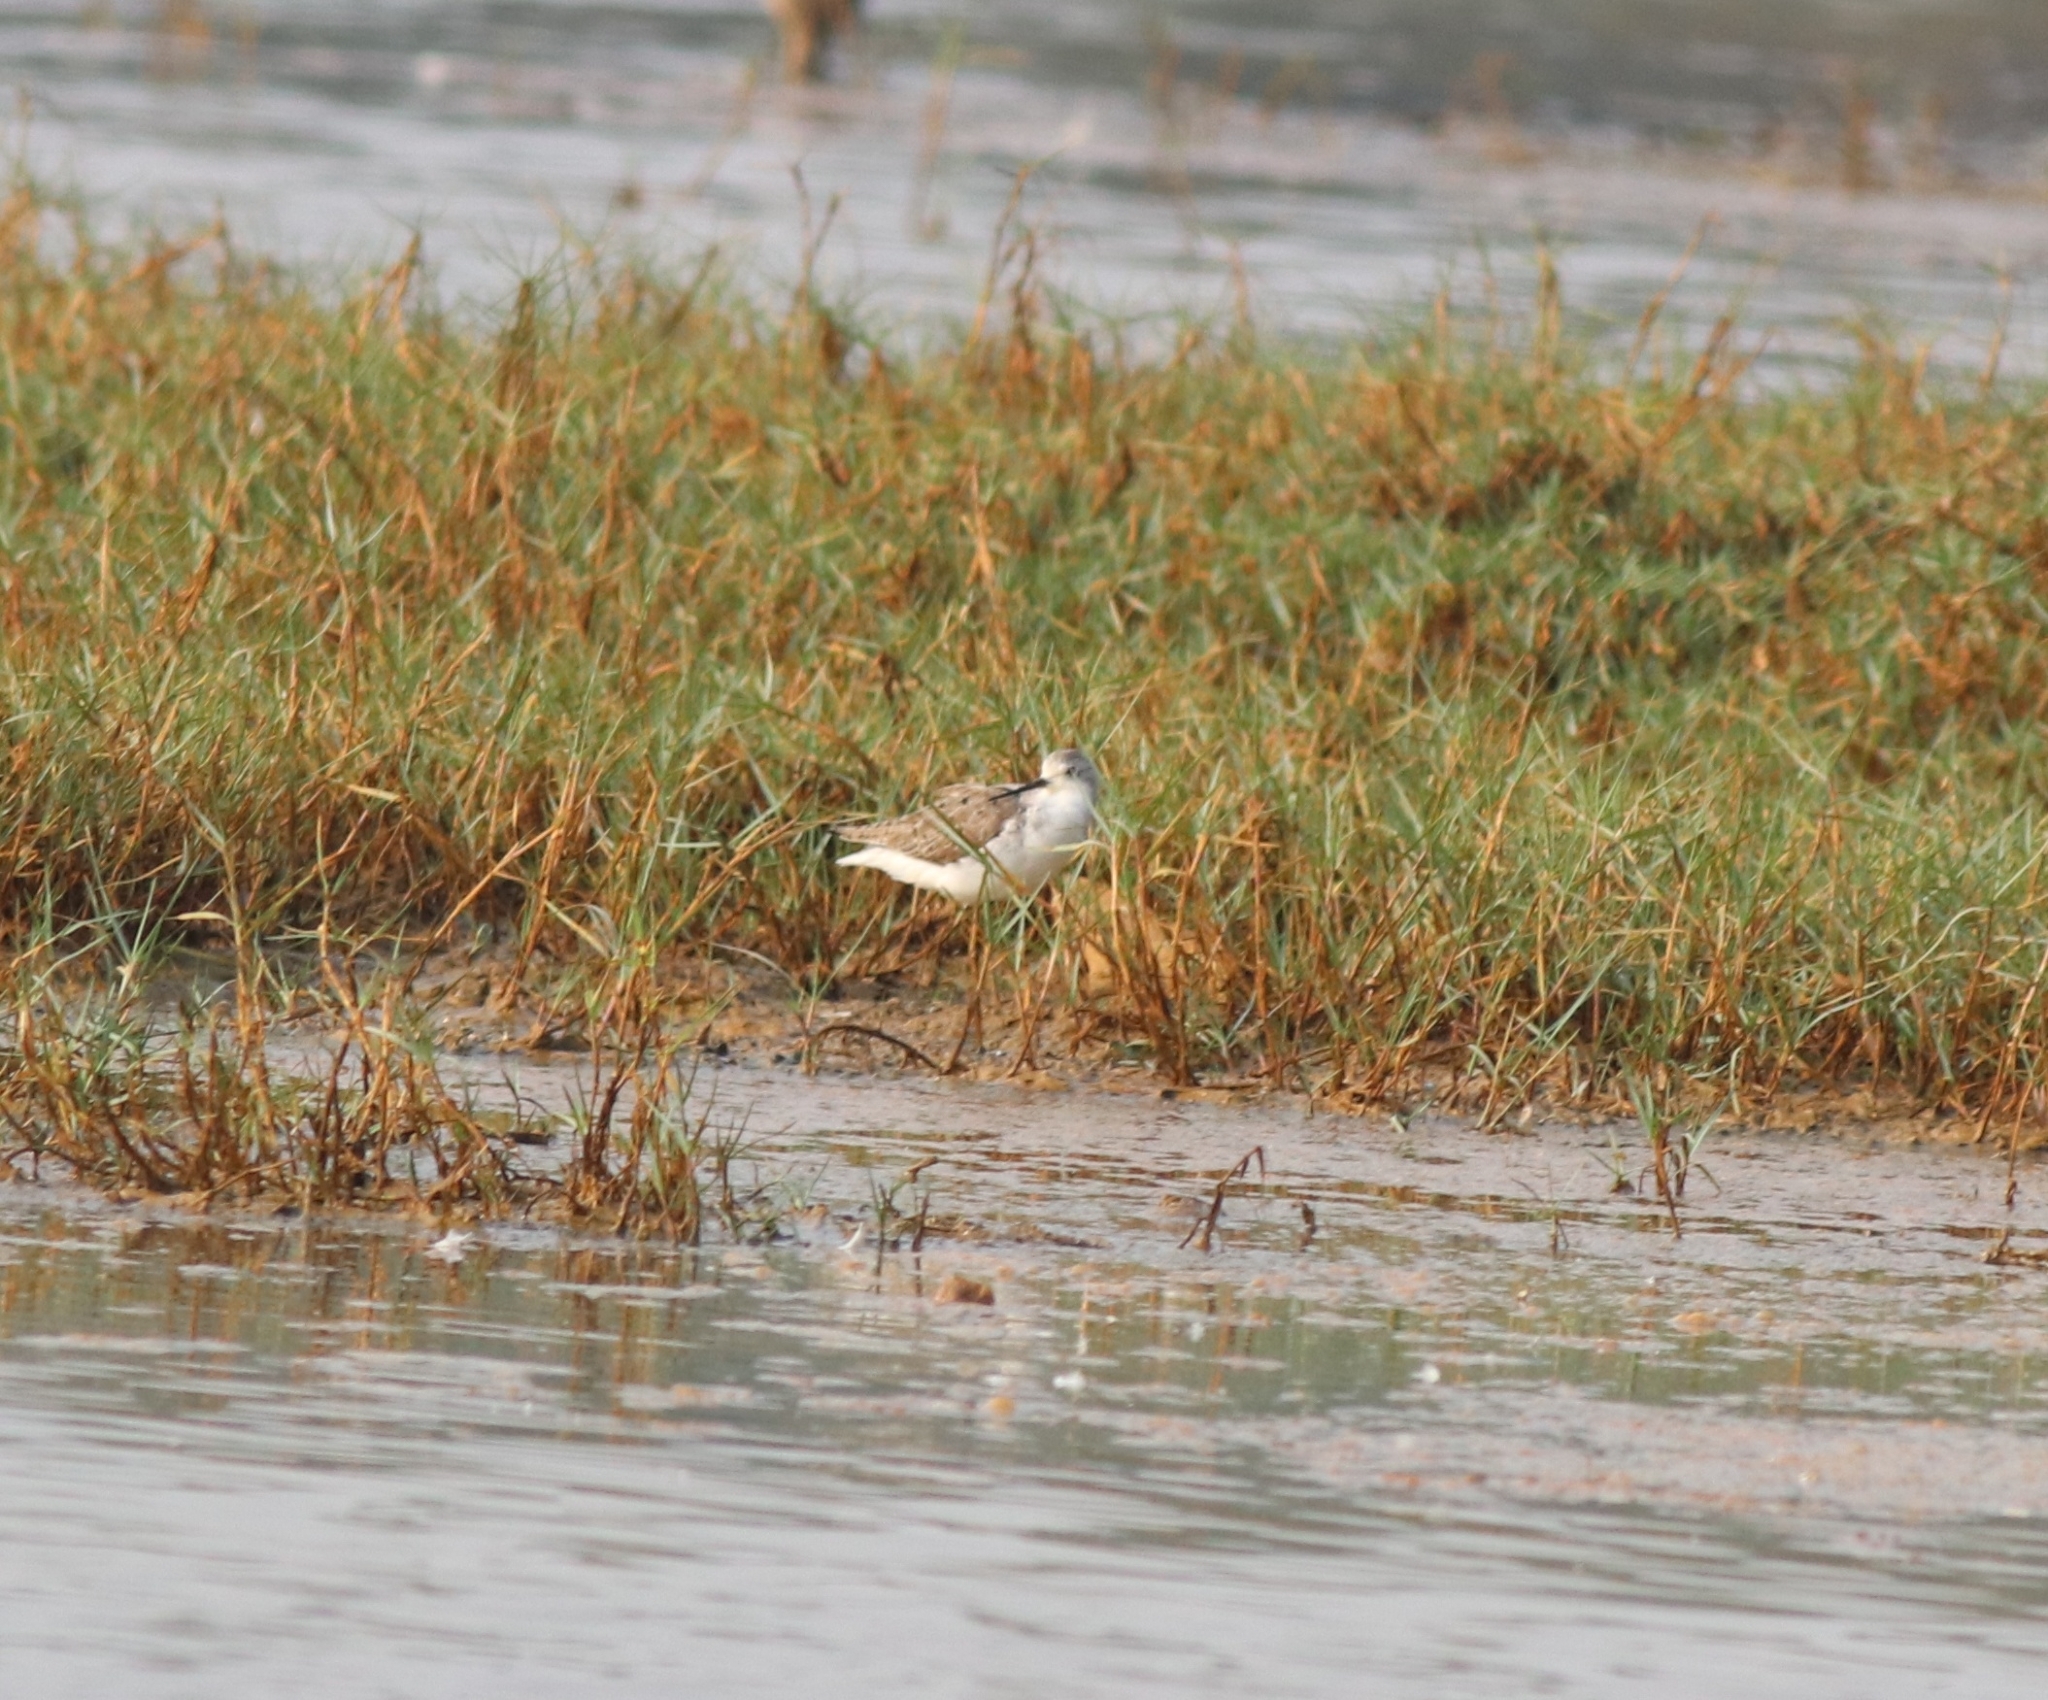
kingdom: Animalia
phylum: Chordata
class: Aves
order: Charadriiformes
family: Scolopacidae
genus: Tringa
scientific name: Tringa stagnatilis
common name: Marsh sandpiper
